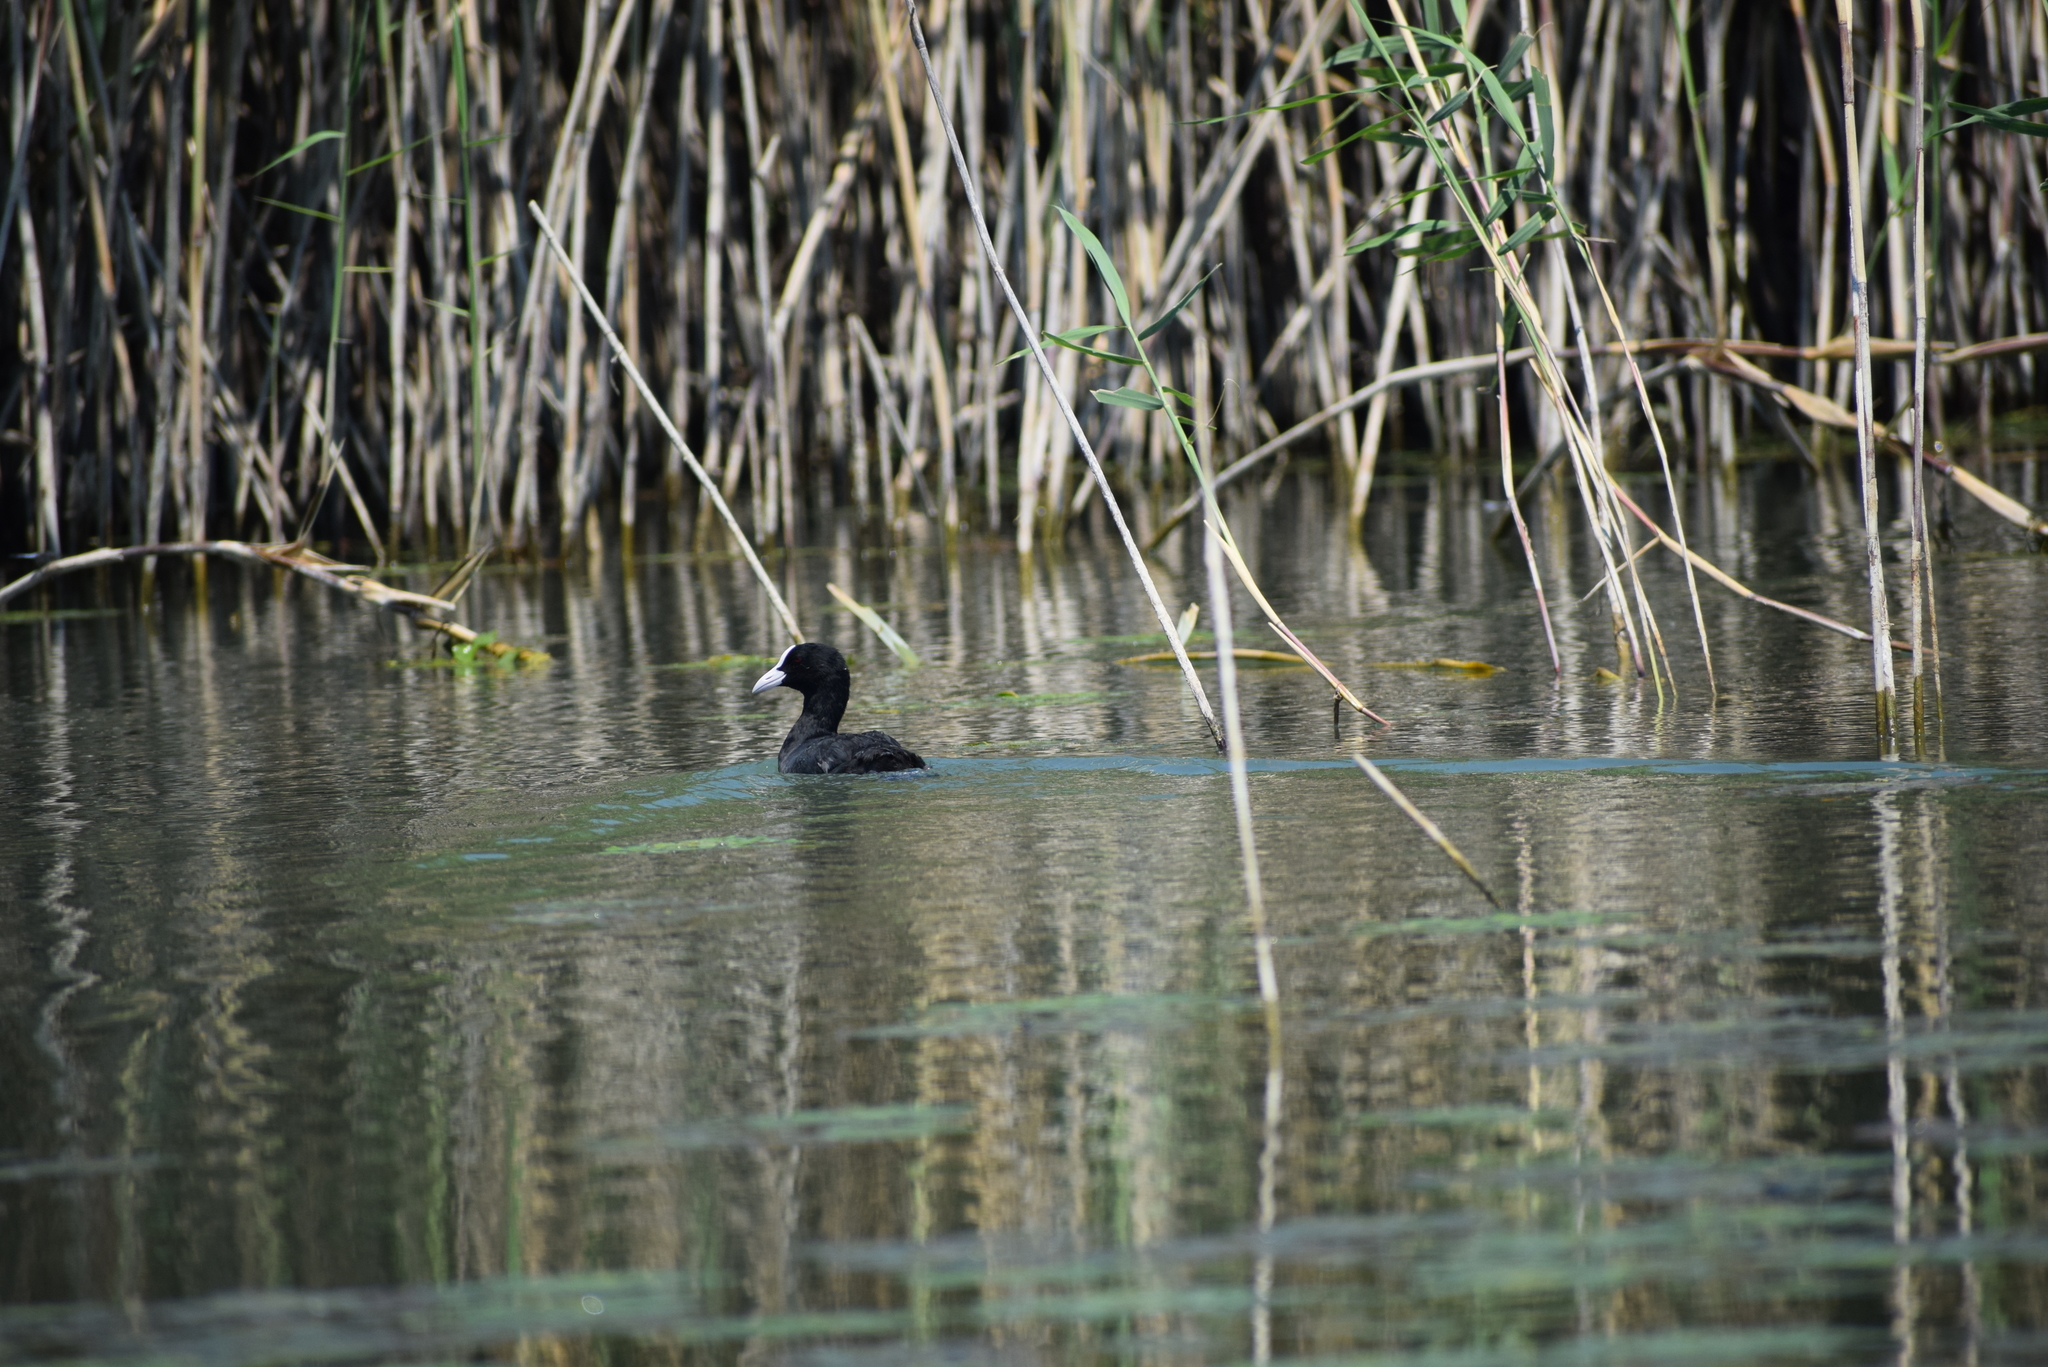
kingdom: Animalia
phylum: Chordata
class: Aves
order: Gruiformes
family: Rallidae
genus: Fulica
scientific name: Fulica atra
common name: Eurasian coot
